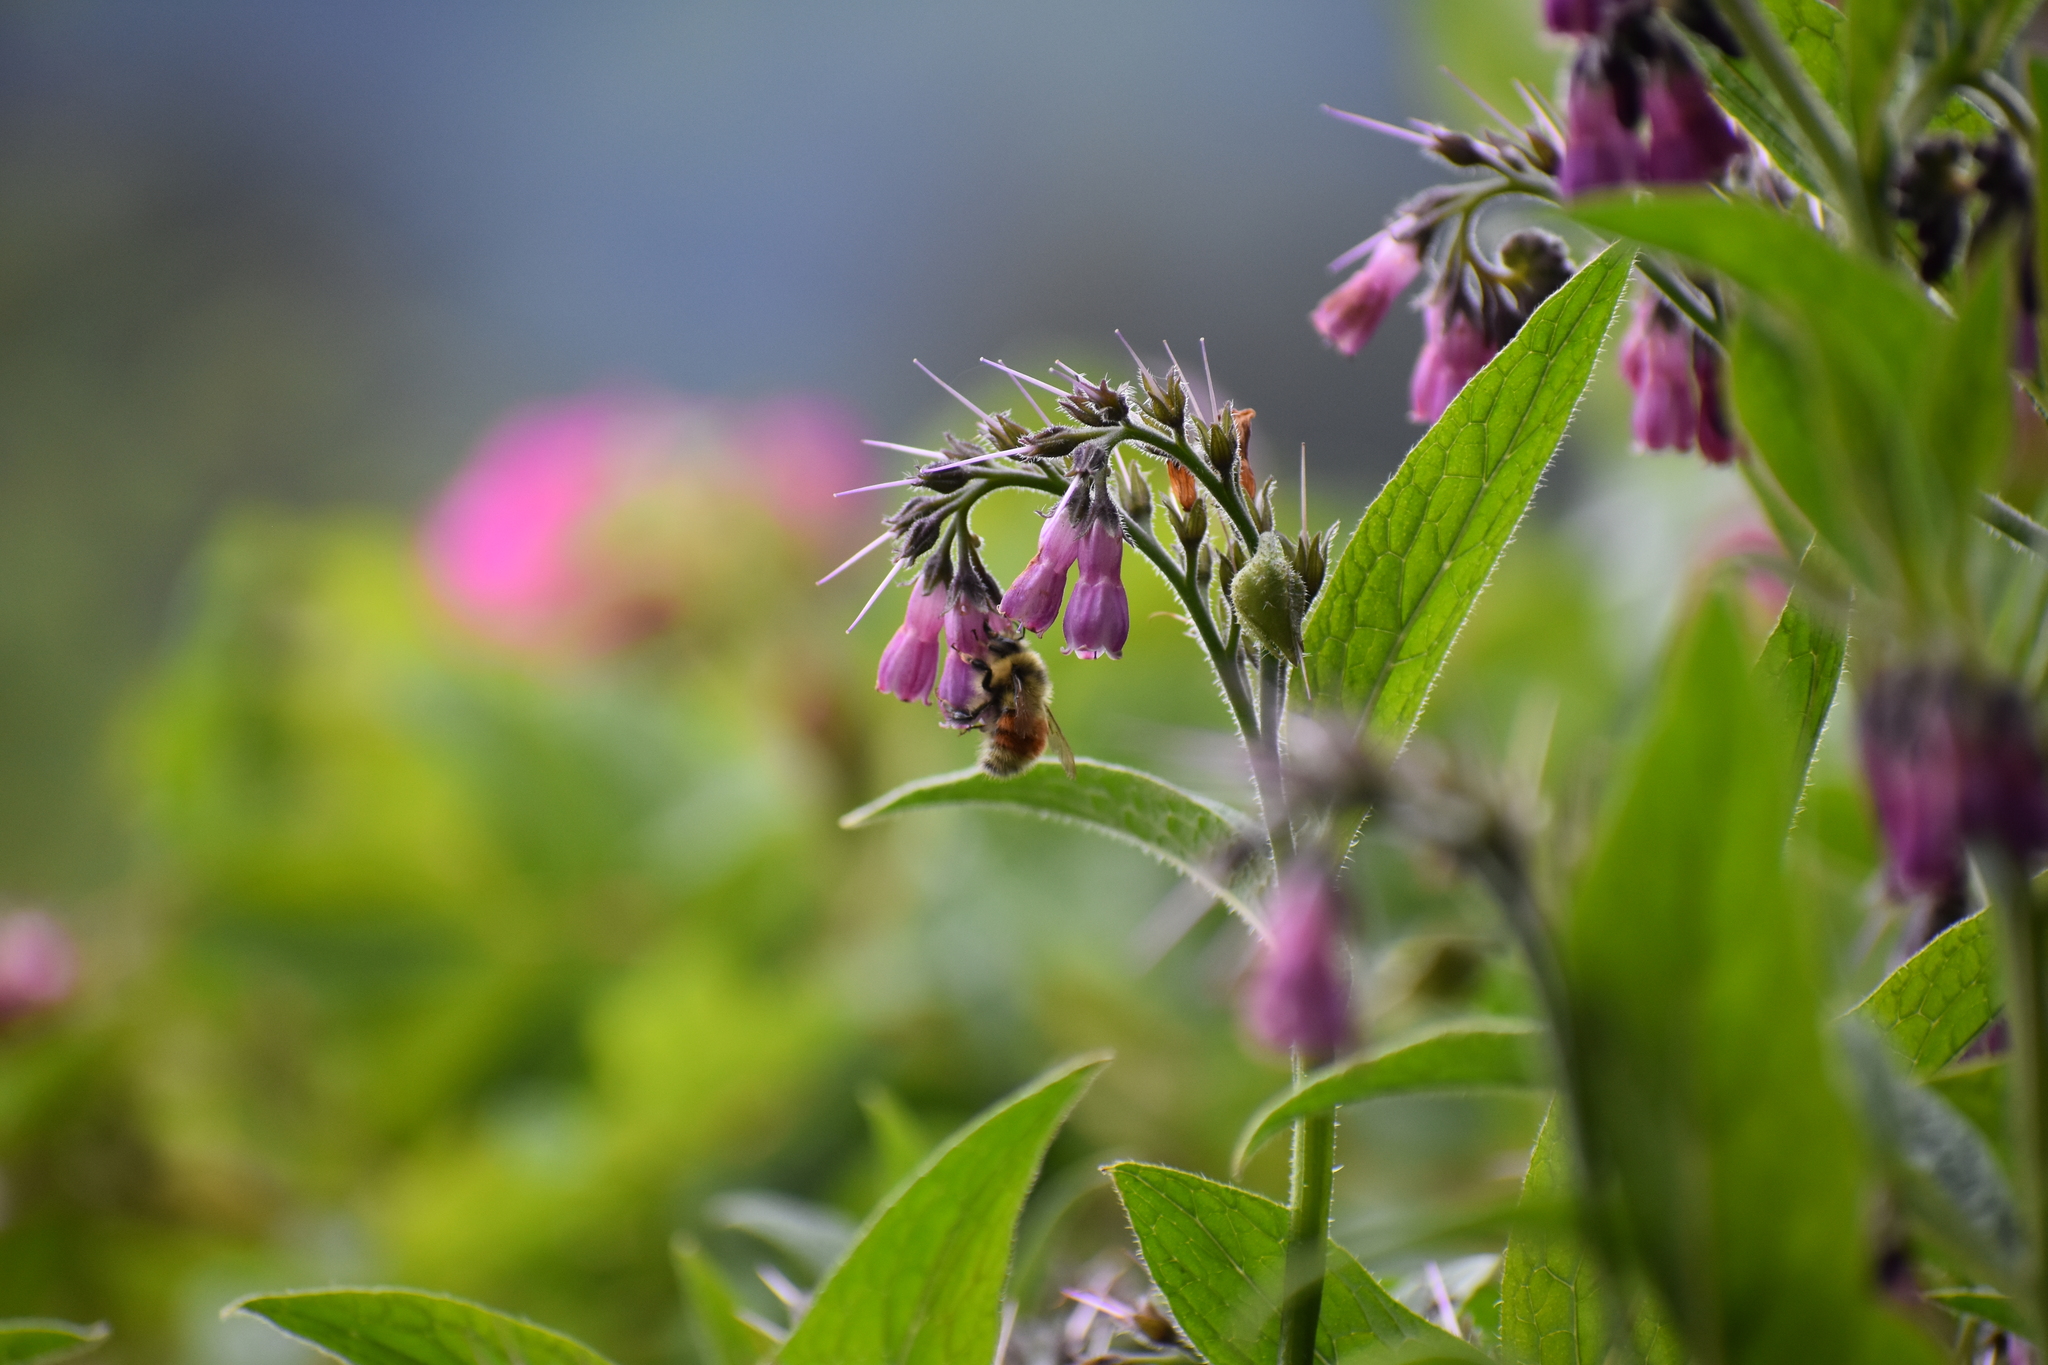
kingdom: Animalia
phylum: Arthropoda
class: Insecta
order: Hymenoptera
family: Apidae
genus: Pyrobombus
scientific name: Pyrobombus
